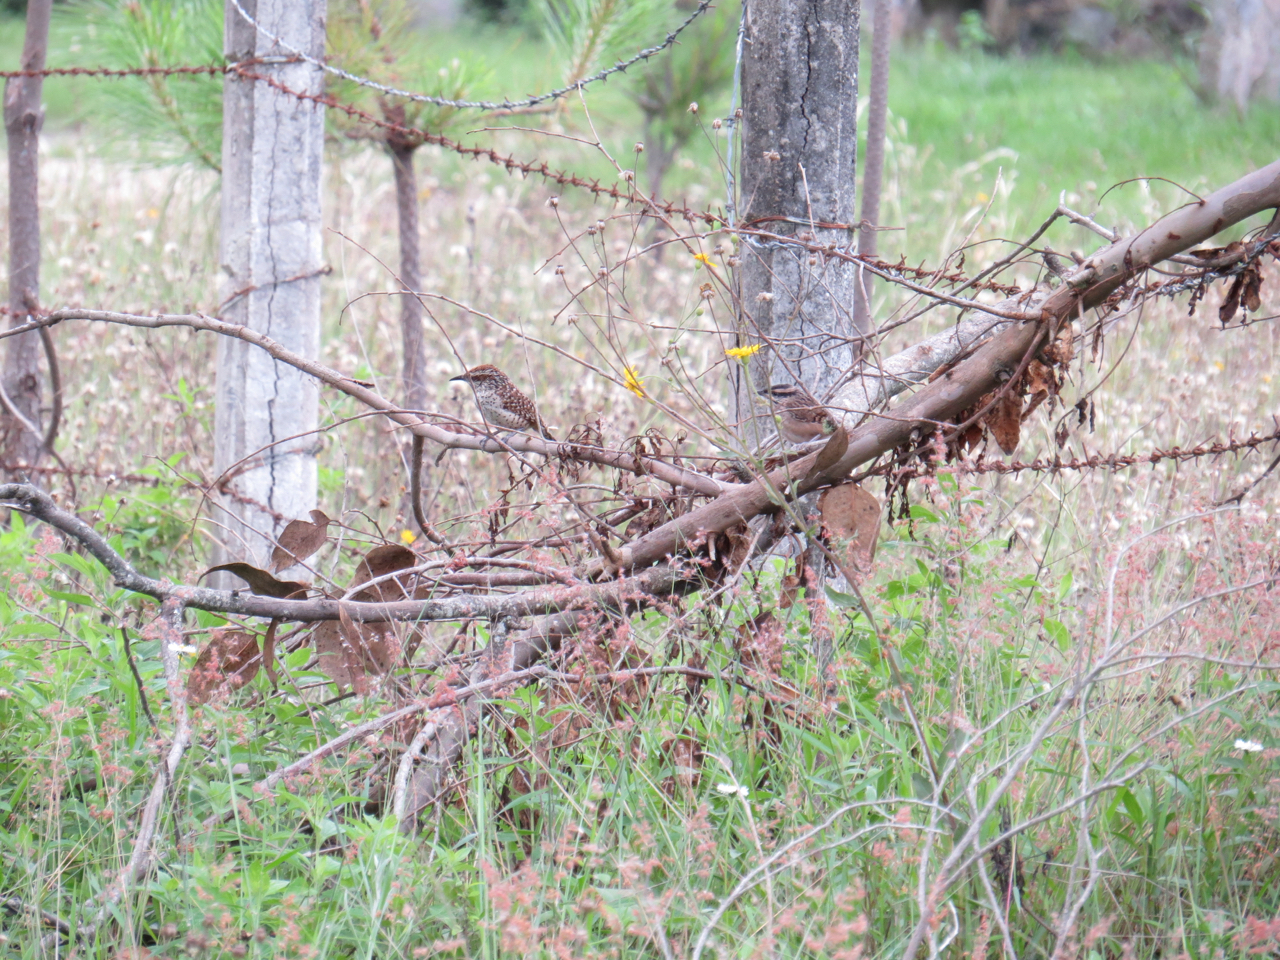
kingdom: Animalia
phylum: Chordata
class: Aves
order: Passeriformes
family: Troglodytidae
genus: Campylorhynchus
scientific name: Campylorhynchus gularis
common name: Spotted wren
